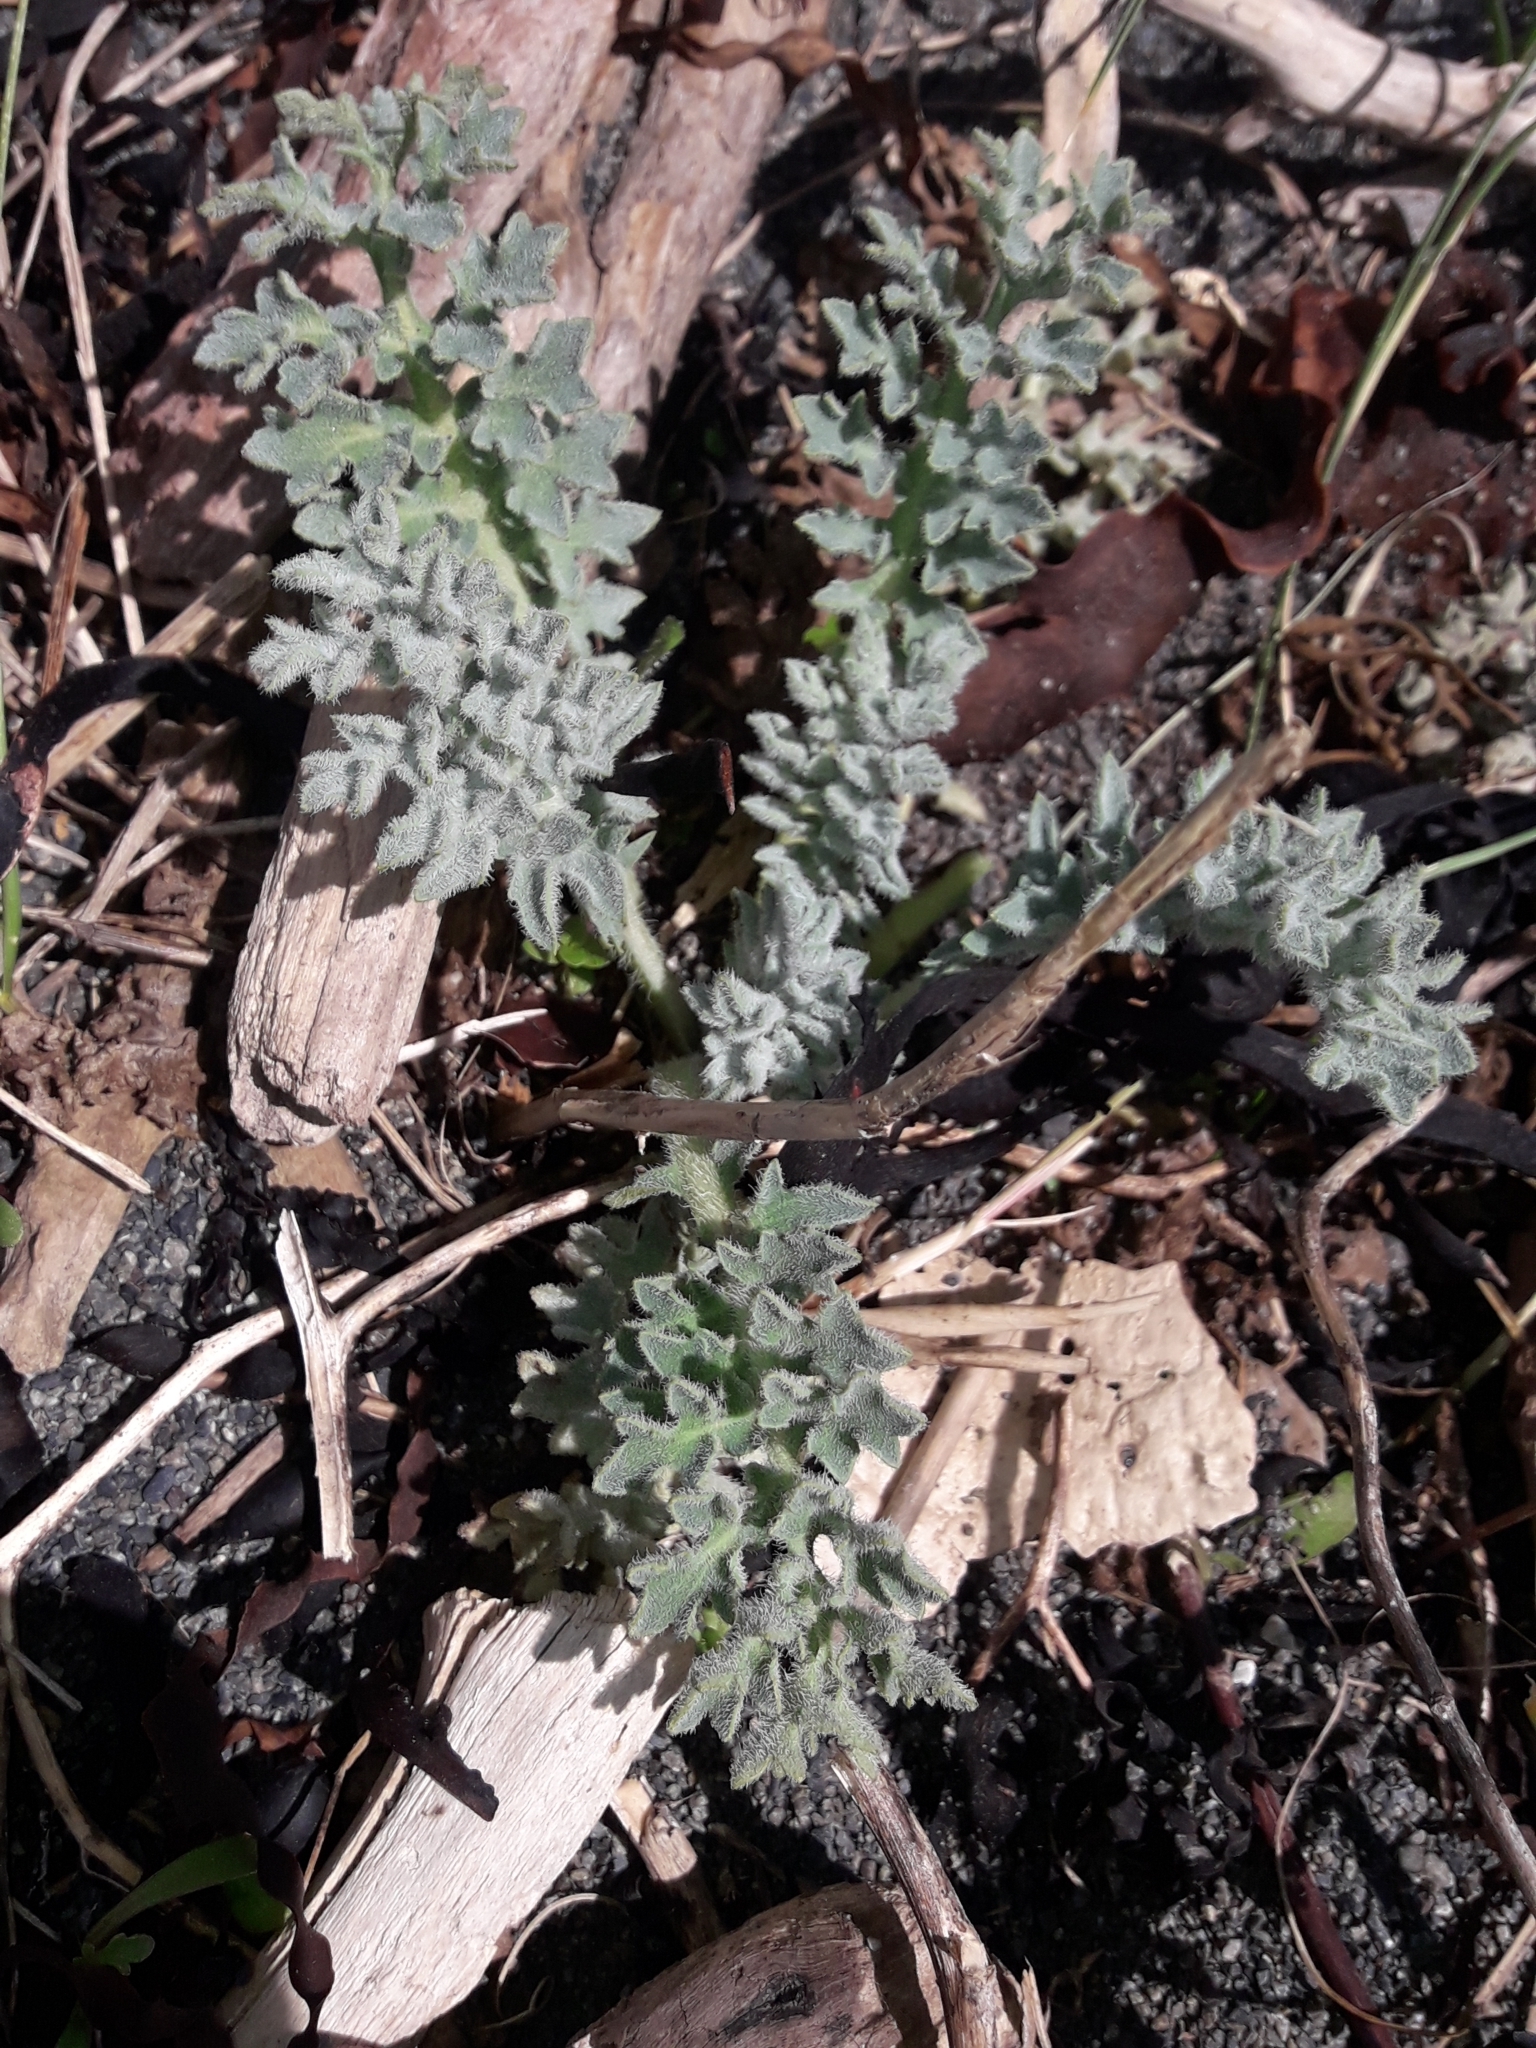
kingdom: Plantae
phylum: Tracheophyta
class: Magnoliopsida
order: Ranunculales
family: Papaveraceae
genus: Glaucium
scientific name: Glaucium flavum
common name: Yellow horned-poppy
